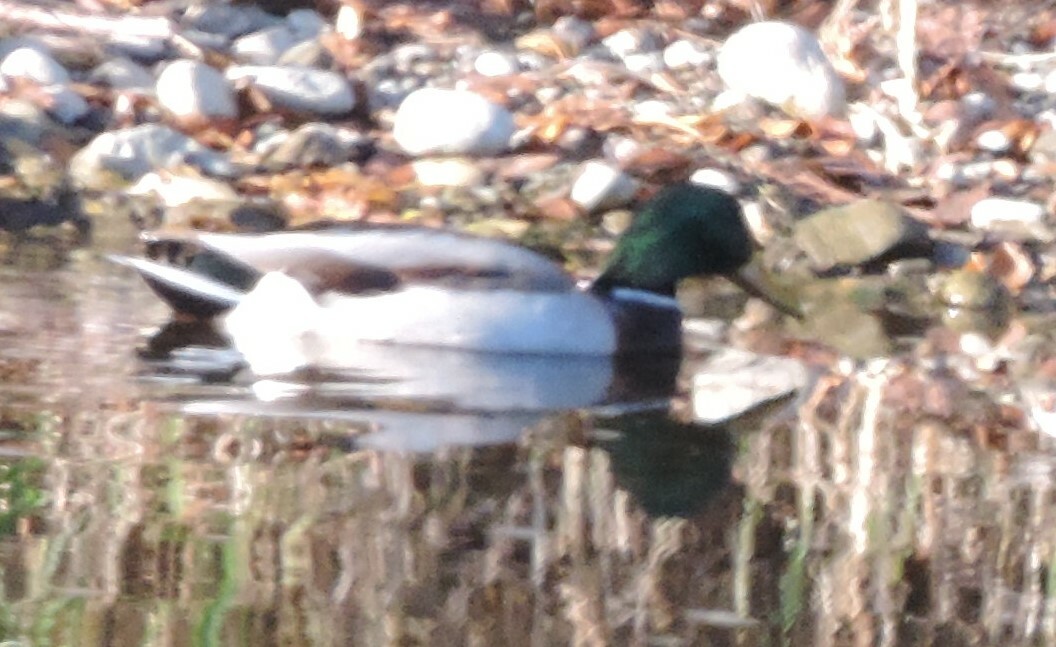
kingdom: Animalia
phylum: Chordata
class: Aves
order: Anseriformes
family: Anatidae
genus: Anas
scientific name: Anas platyrhynchos
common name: Mallard
